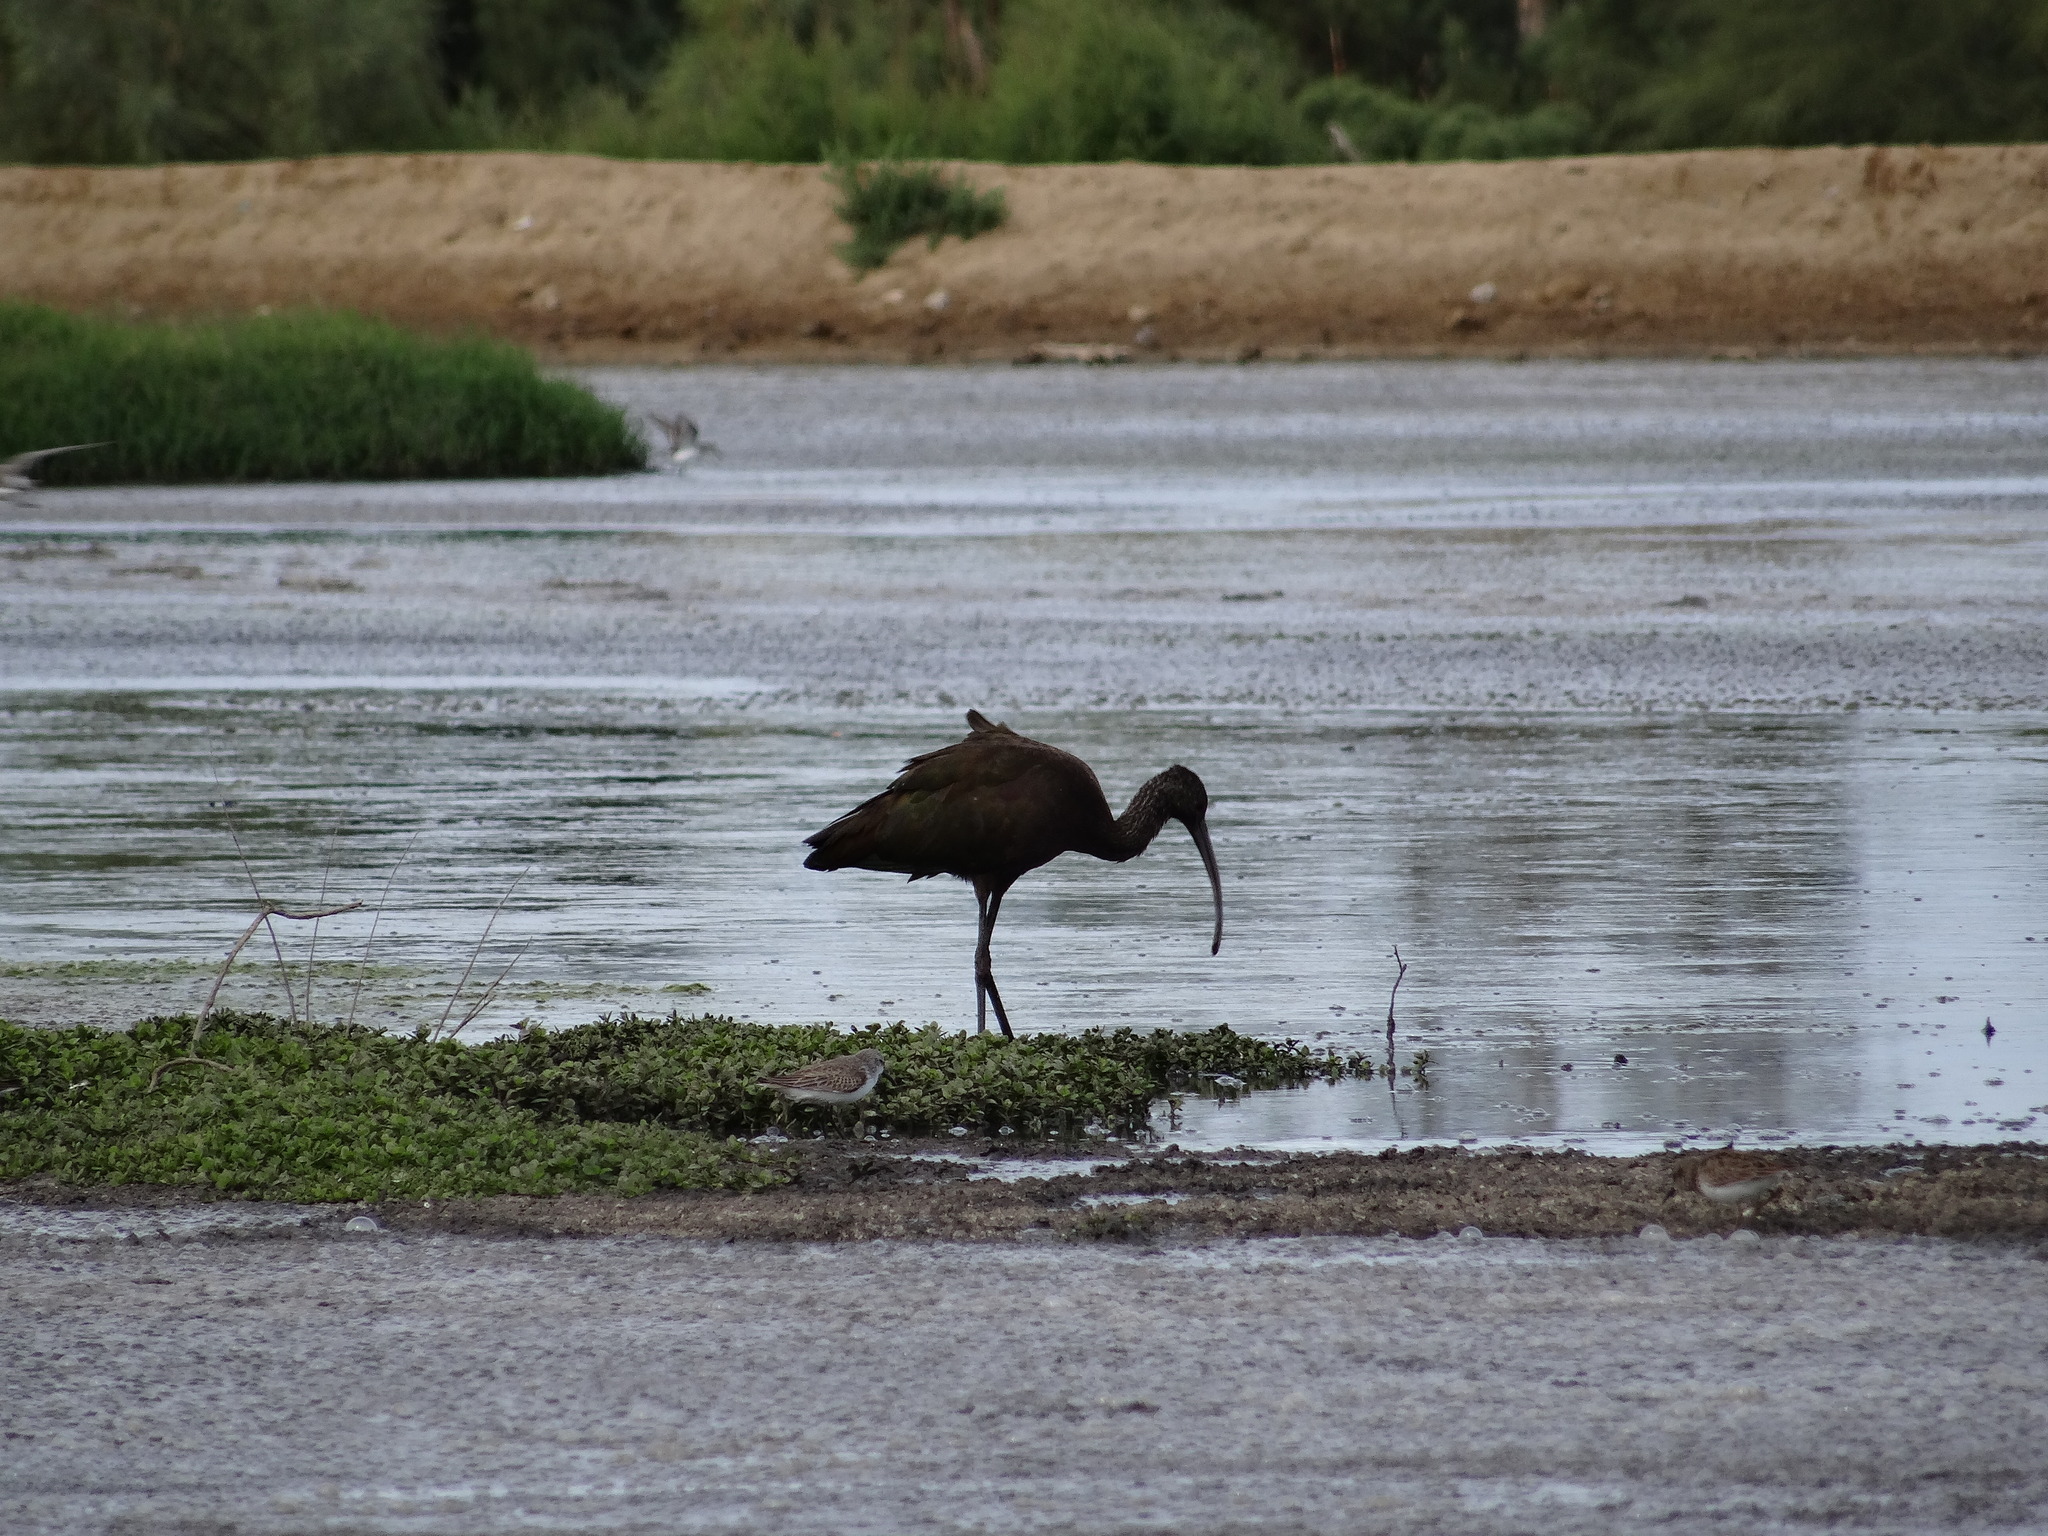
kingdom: Animalia
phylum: Chordata
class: Aves
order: Pelecaniformes
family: Threskiornithidae
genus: Plegadis
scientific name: Plegadis chihi
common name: White-faced ibis
